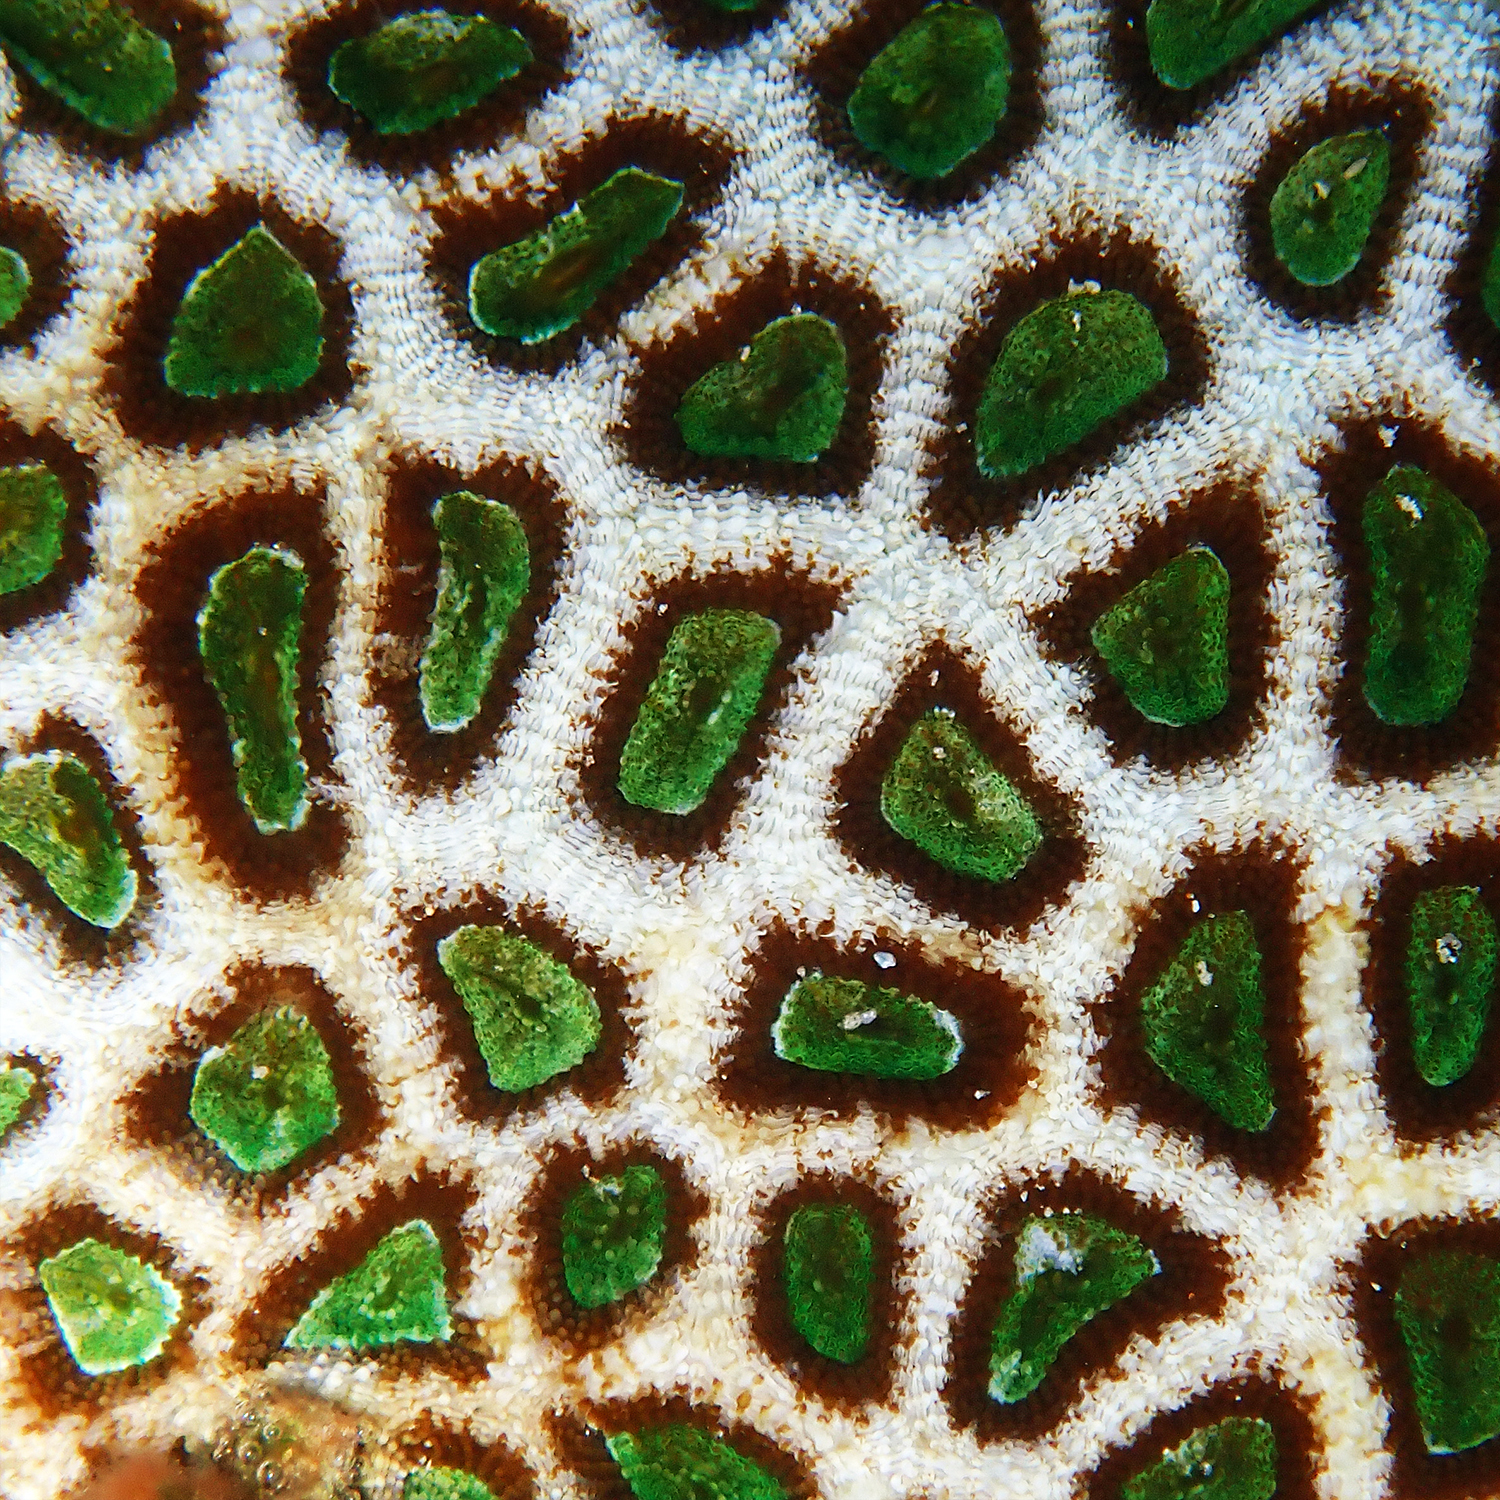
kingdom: Animalia
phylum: Cnidaria
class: Anthozoa
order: Scleractinia
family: Lobophylliidae
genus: Homophyllia
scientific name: Homophyllia bowerbanki
